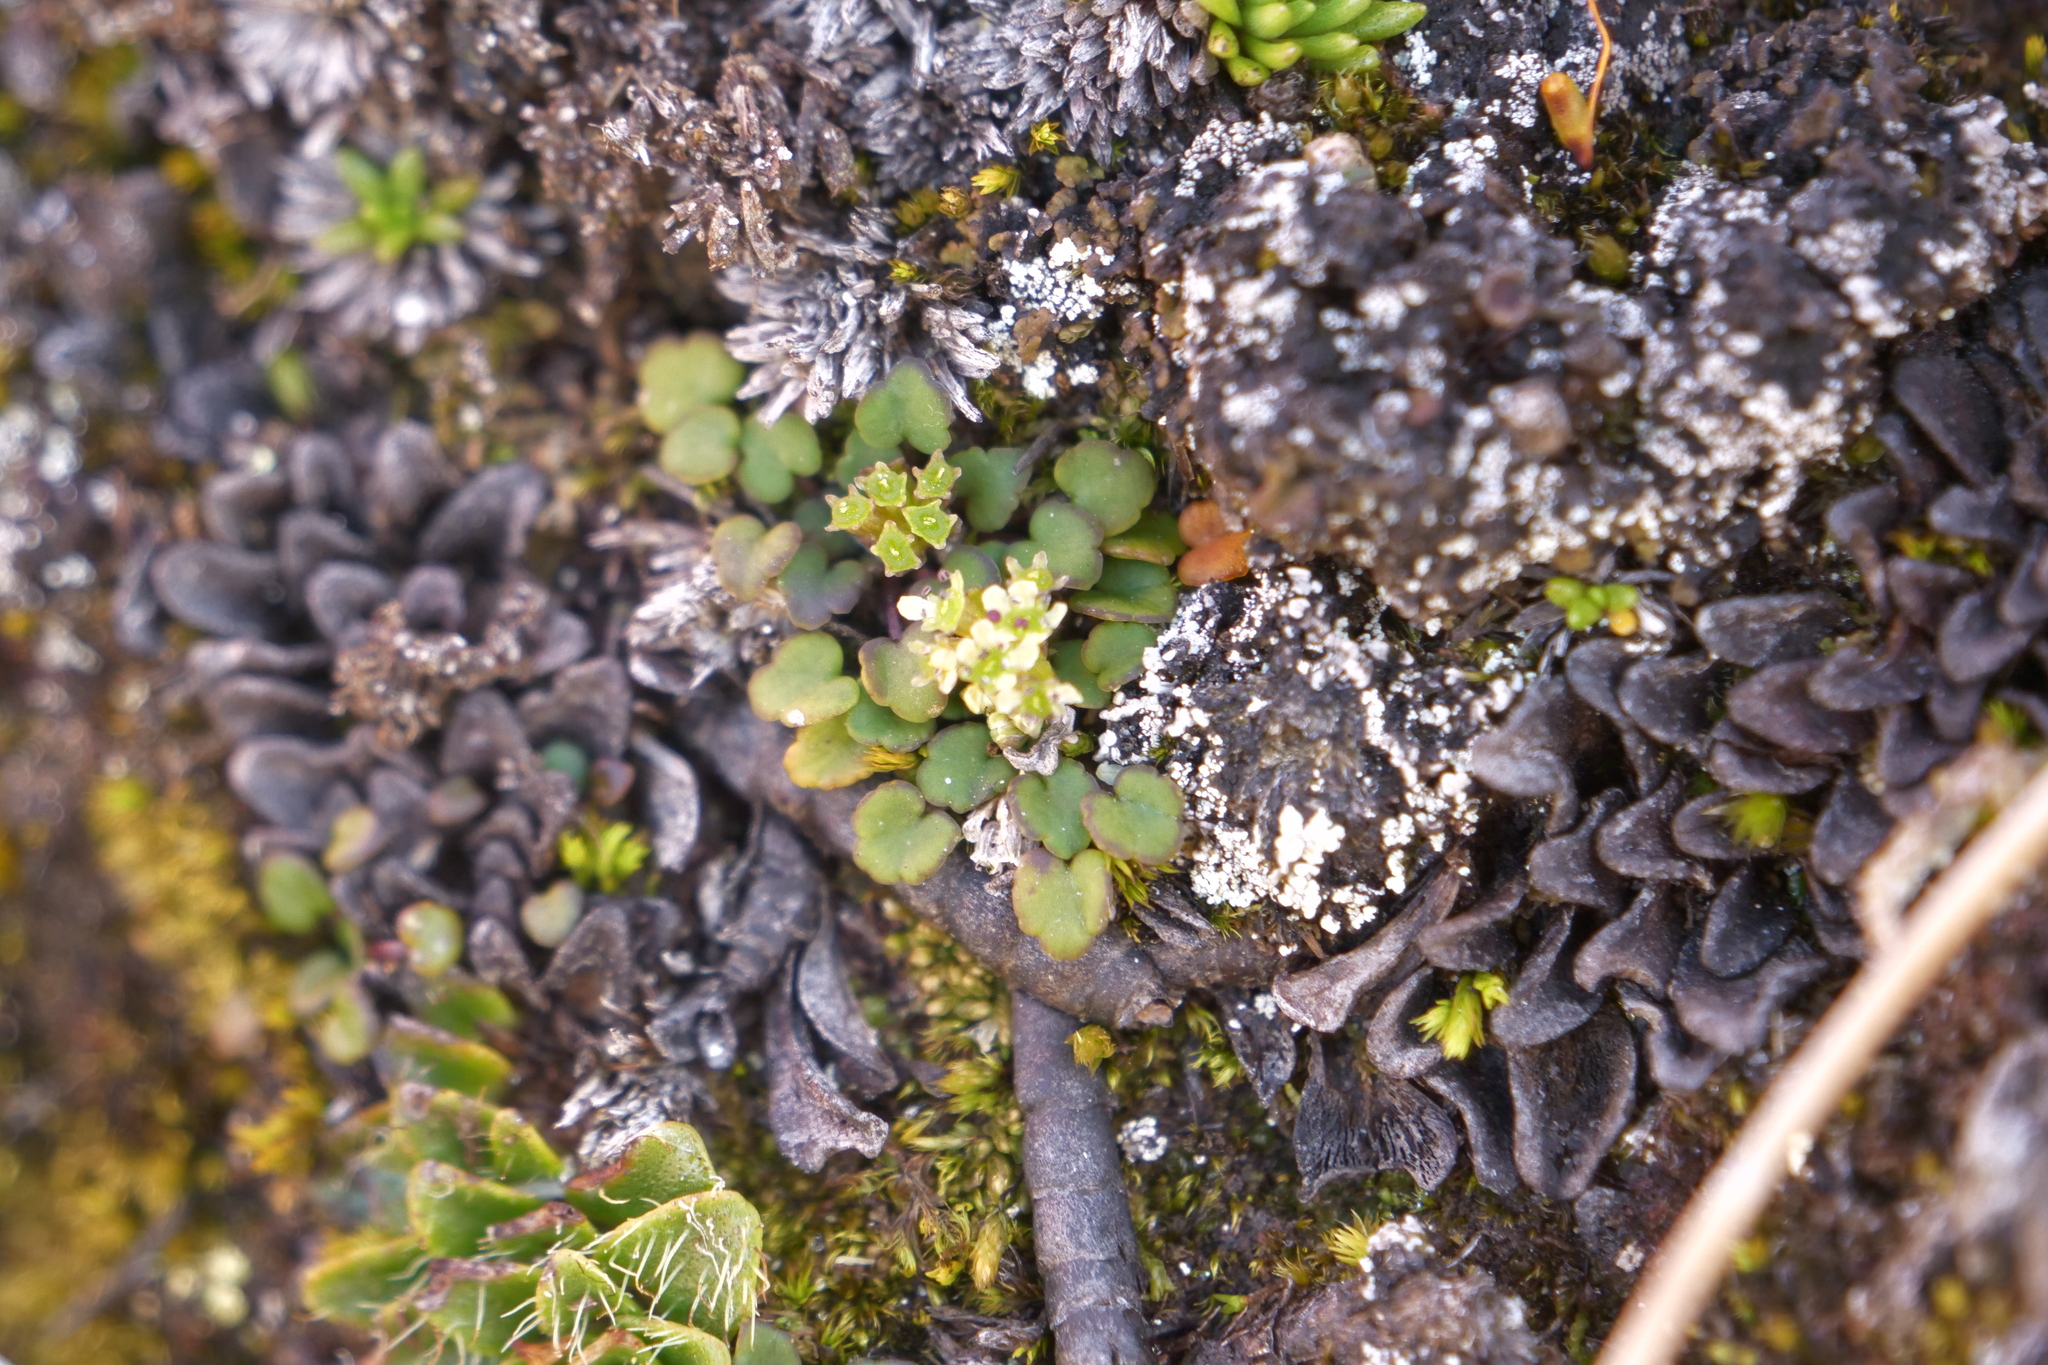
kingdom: Plantae
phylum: Tracheophyta
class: Magnoliopsida
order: Apiales
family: Apiaceae
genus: Azorella
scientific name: Azorella exigua
